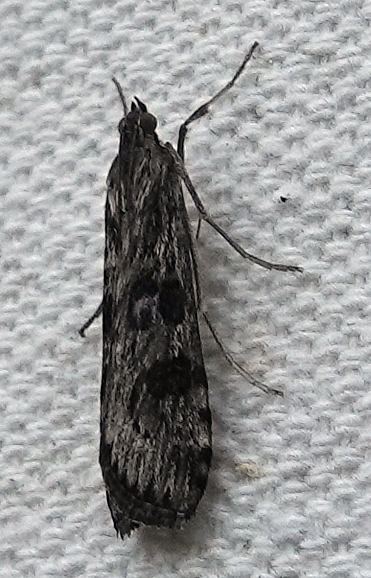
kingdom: Animalia
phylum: Arthropoda
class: Insecta
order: Lepidoptera
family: Crambidae
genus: Nomophila
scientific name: Nomophila nearctica
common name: American rush veneer
